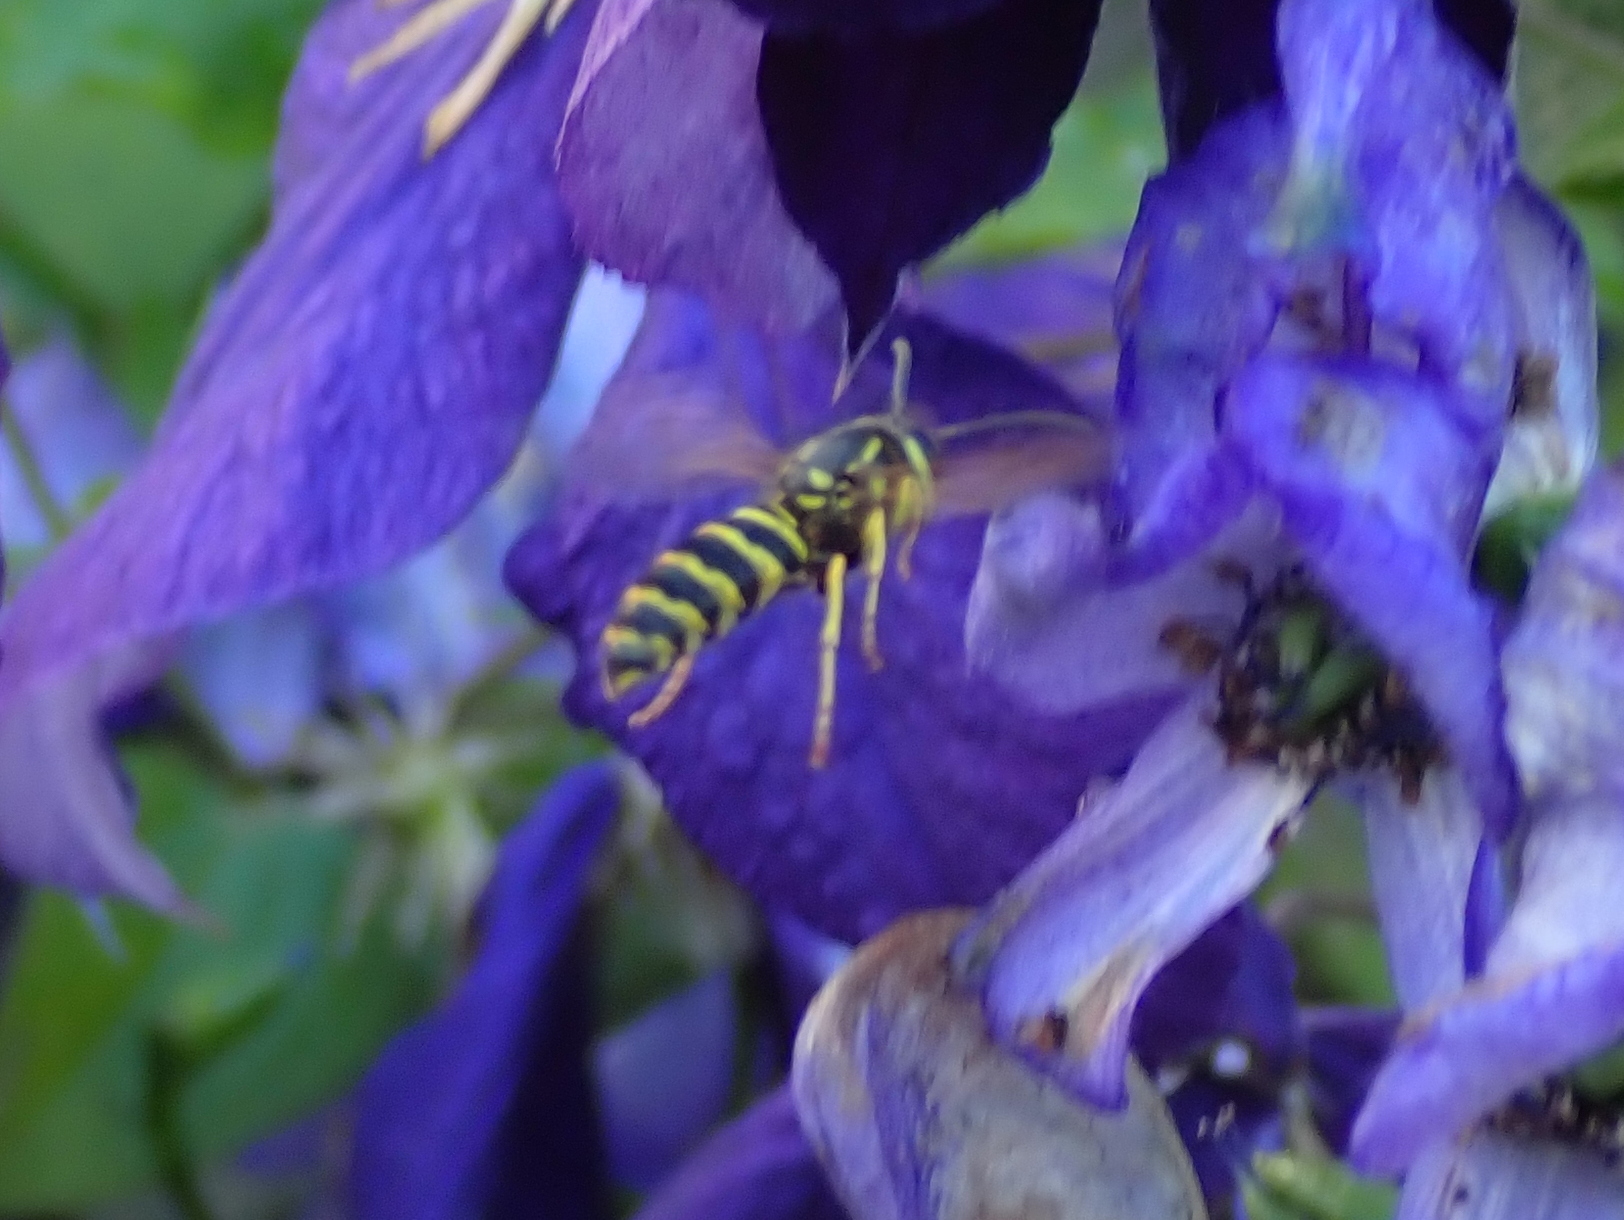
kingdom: Animalia
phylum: Arthropoda
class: Insecta
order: Hymenoptera
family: Vespidae
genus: Vespula
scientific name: Vespula maculifrons
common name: Eastern yellowjacket
